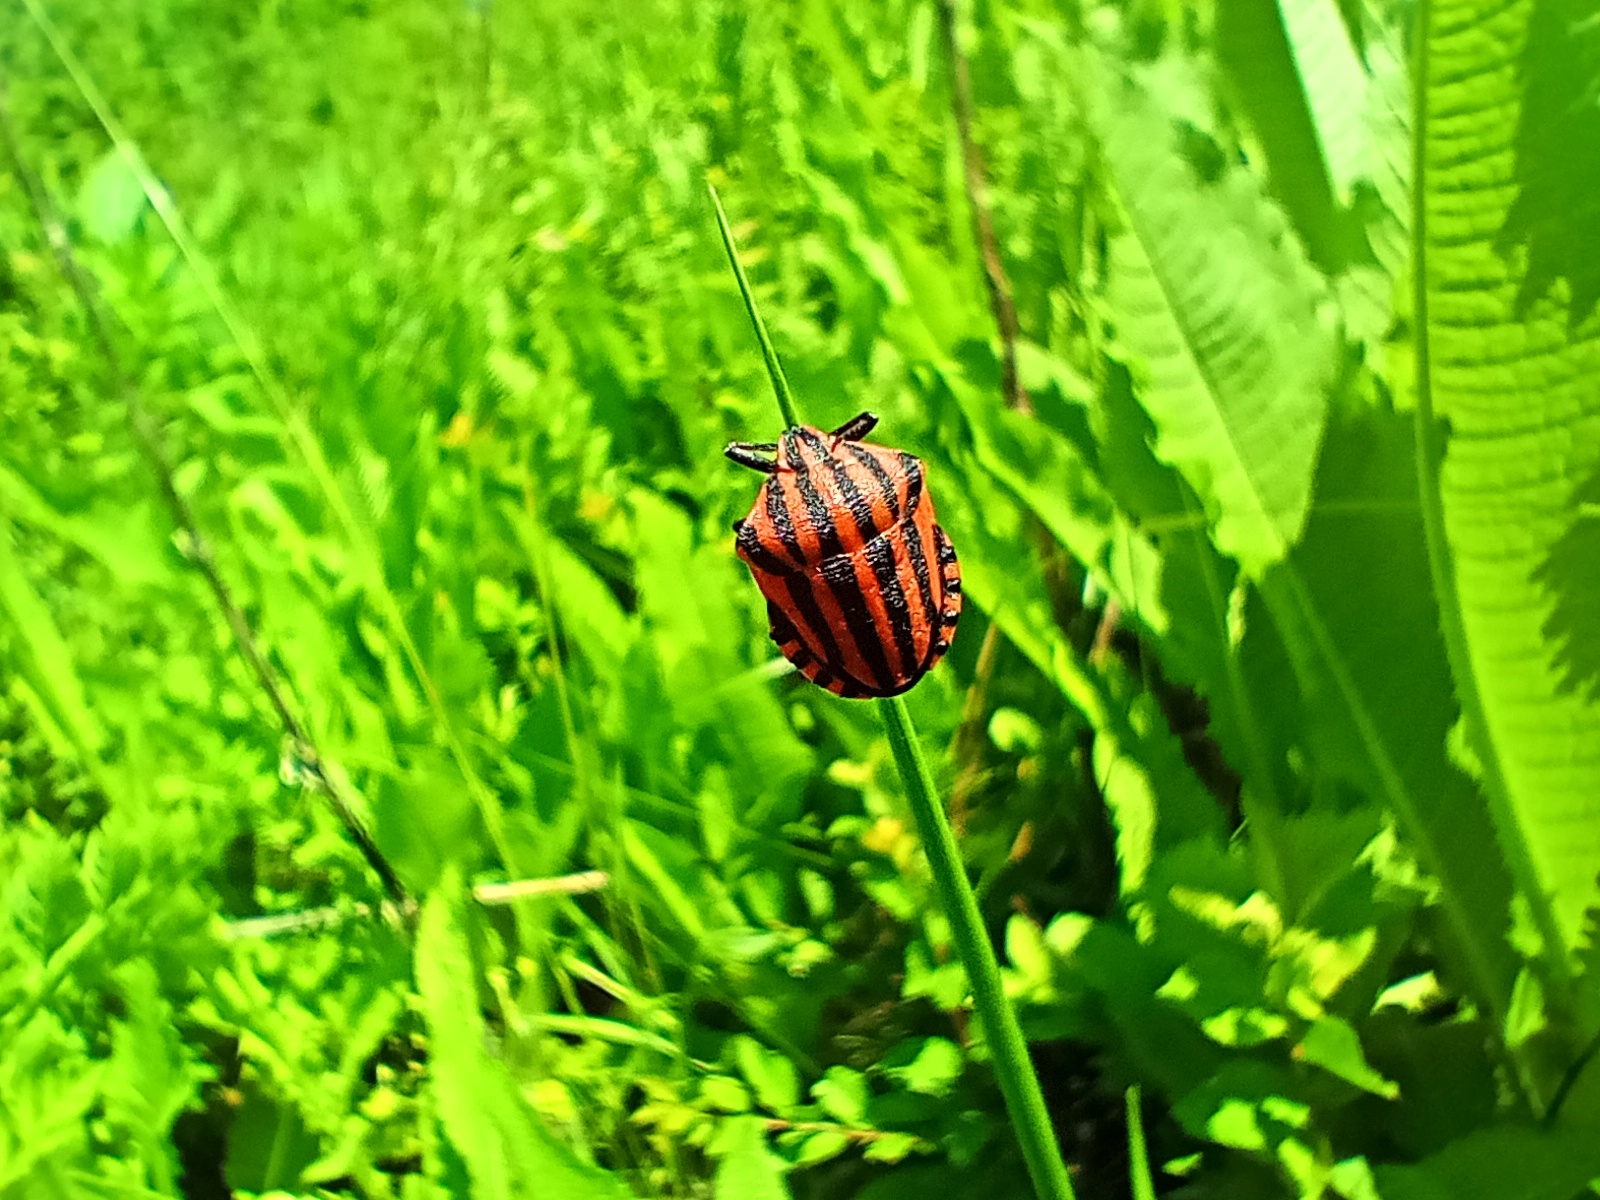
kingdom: Animalia
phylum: Arthropoda
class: Insecta
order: Hemiptera
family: Pentatomidae
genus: Graphosoma
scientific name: Graphosoma italicum
